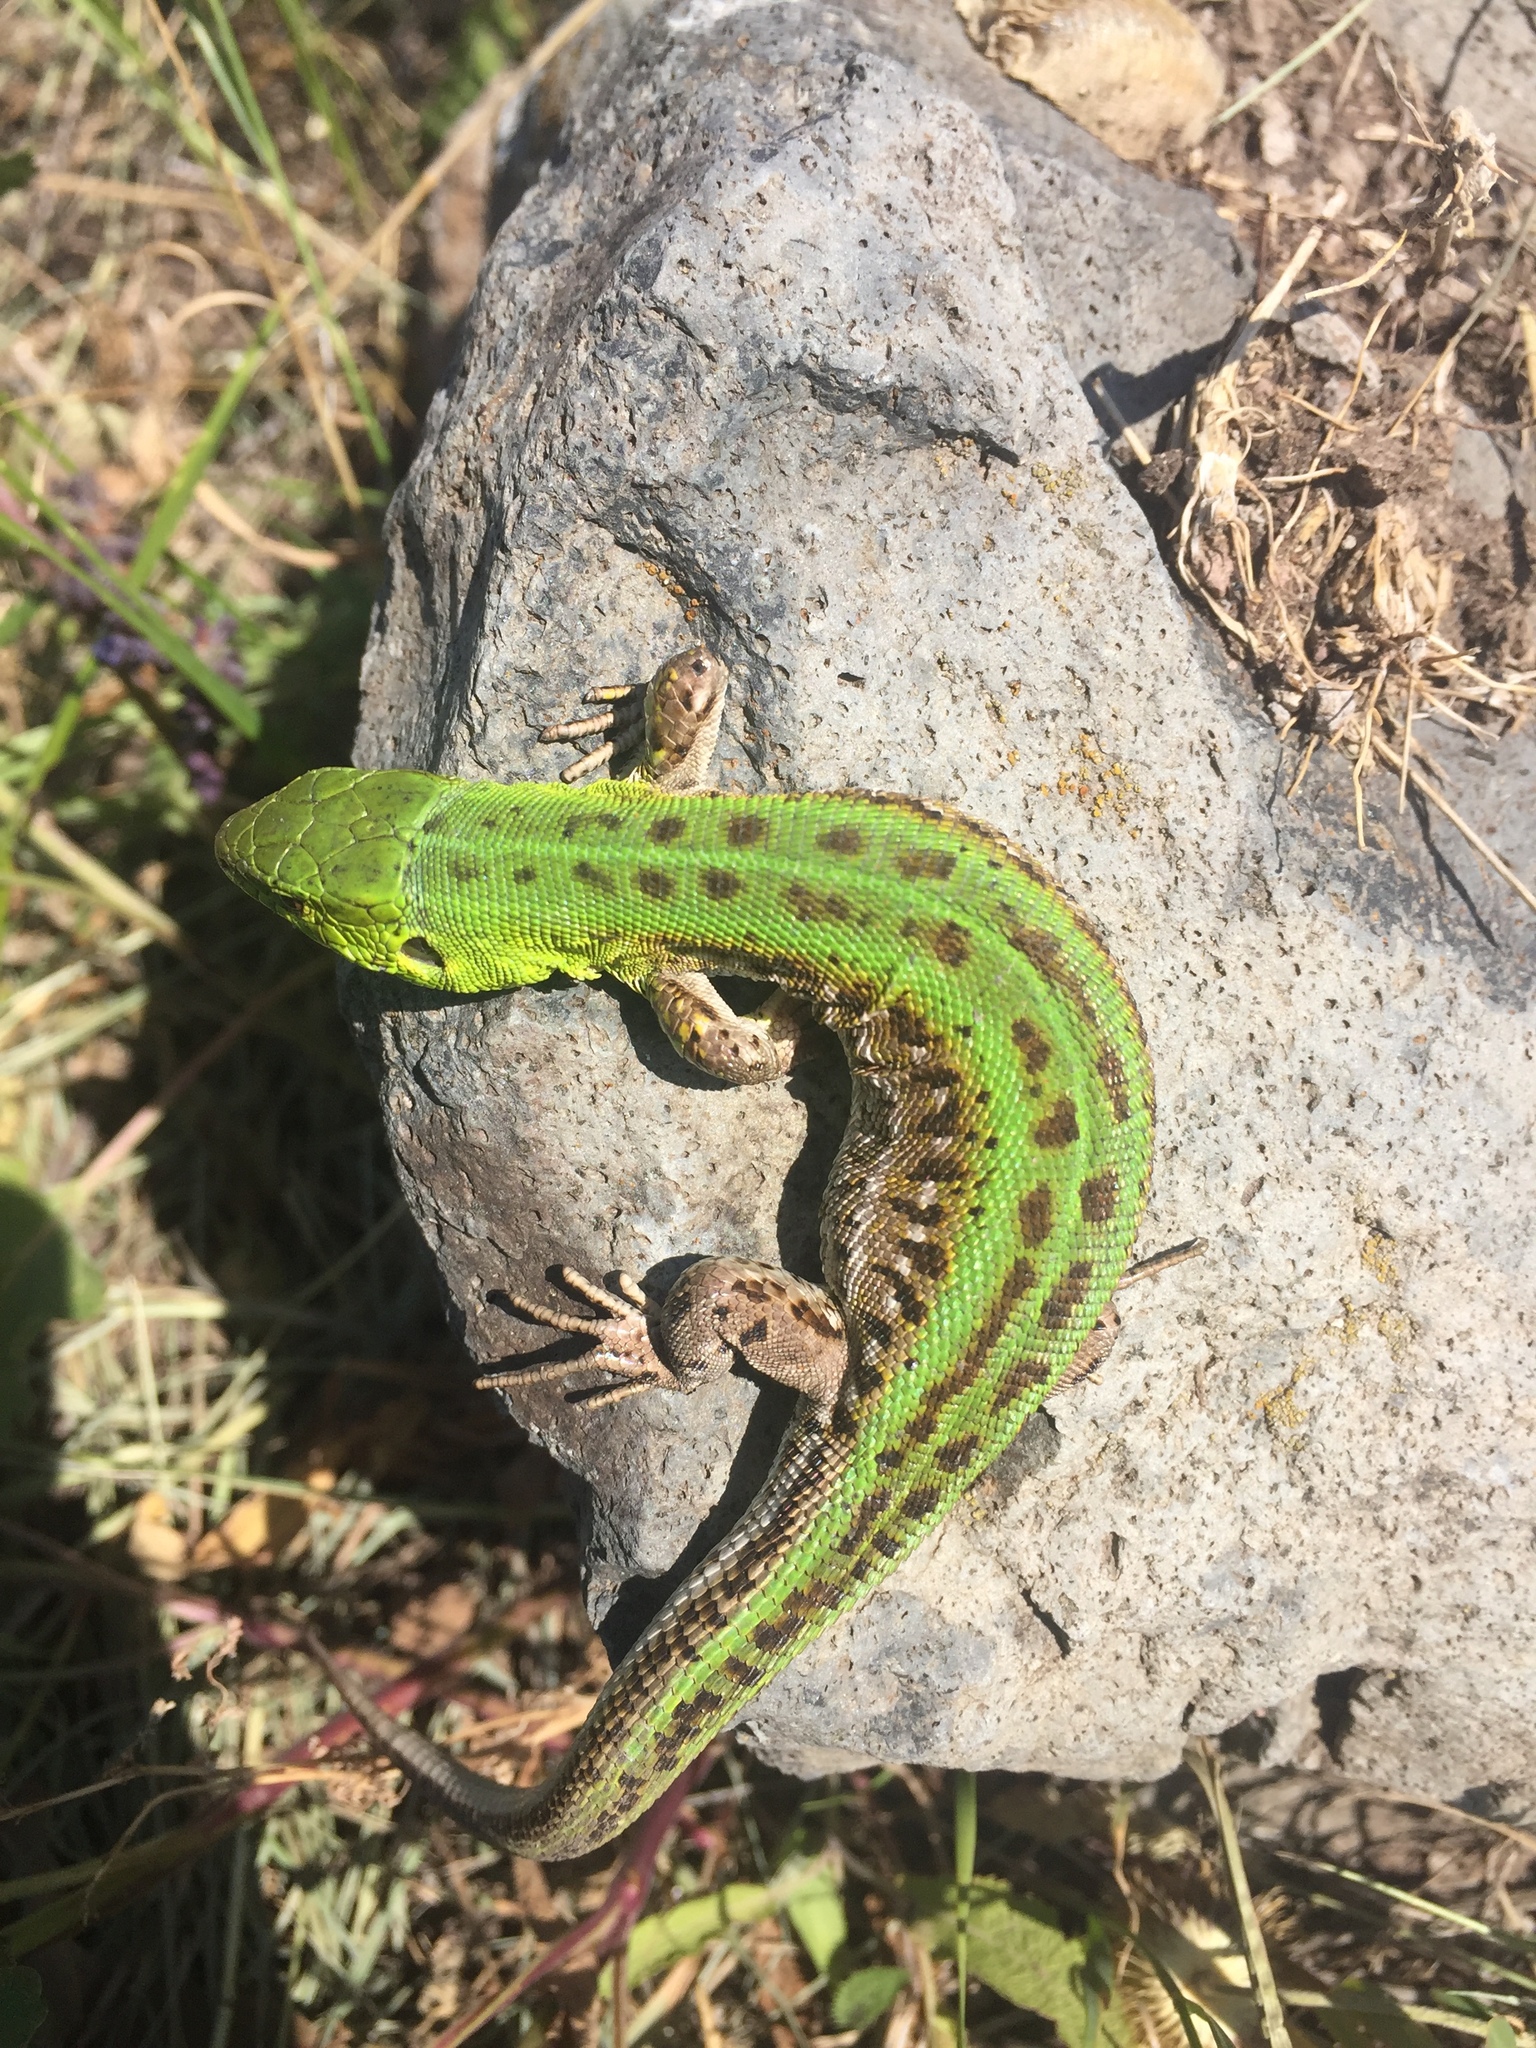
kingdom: Animalia
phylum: Chordata
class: Squamata
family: Lacertidae
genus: Lacerta
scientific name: Lacerta agilis
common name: Sand lizard
